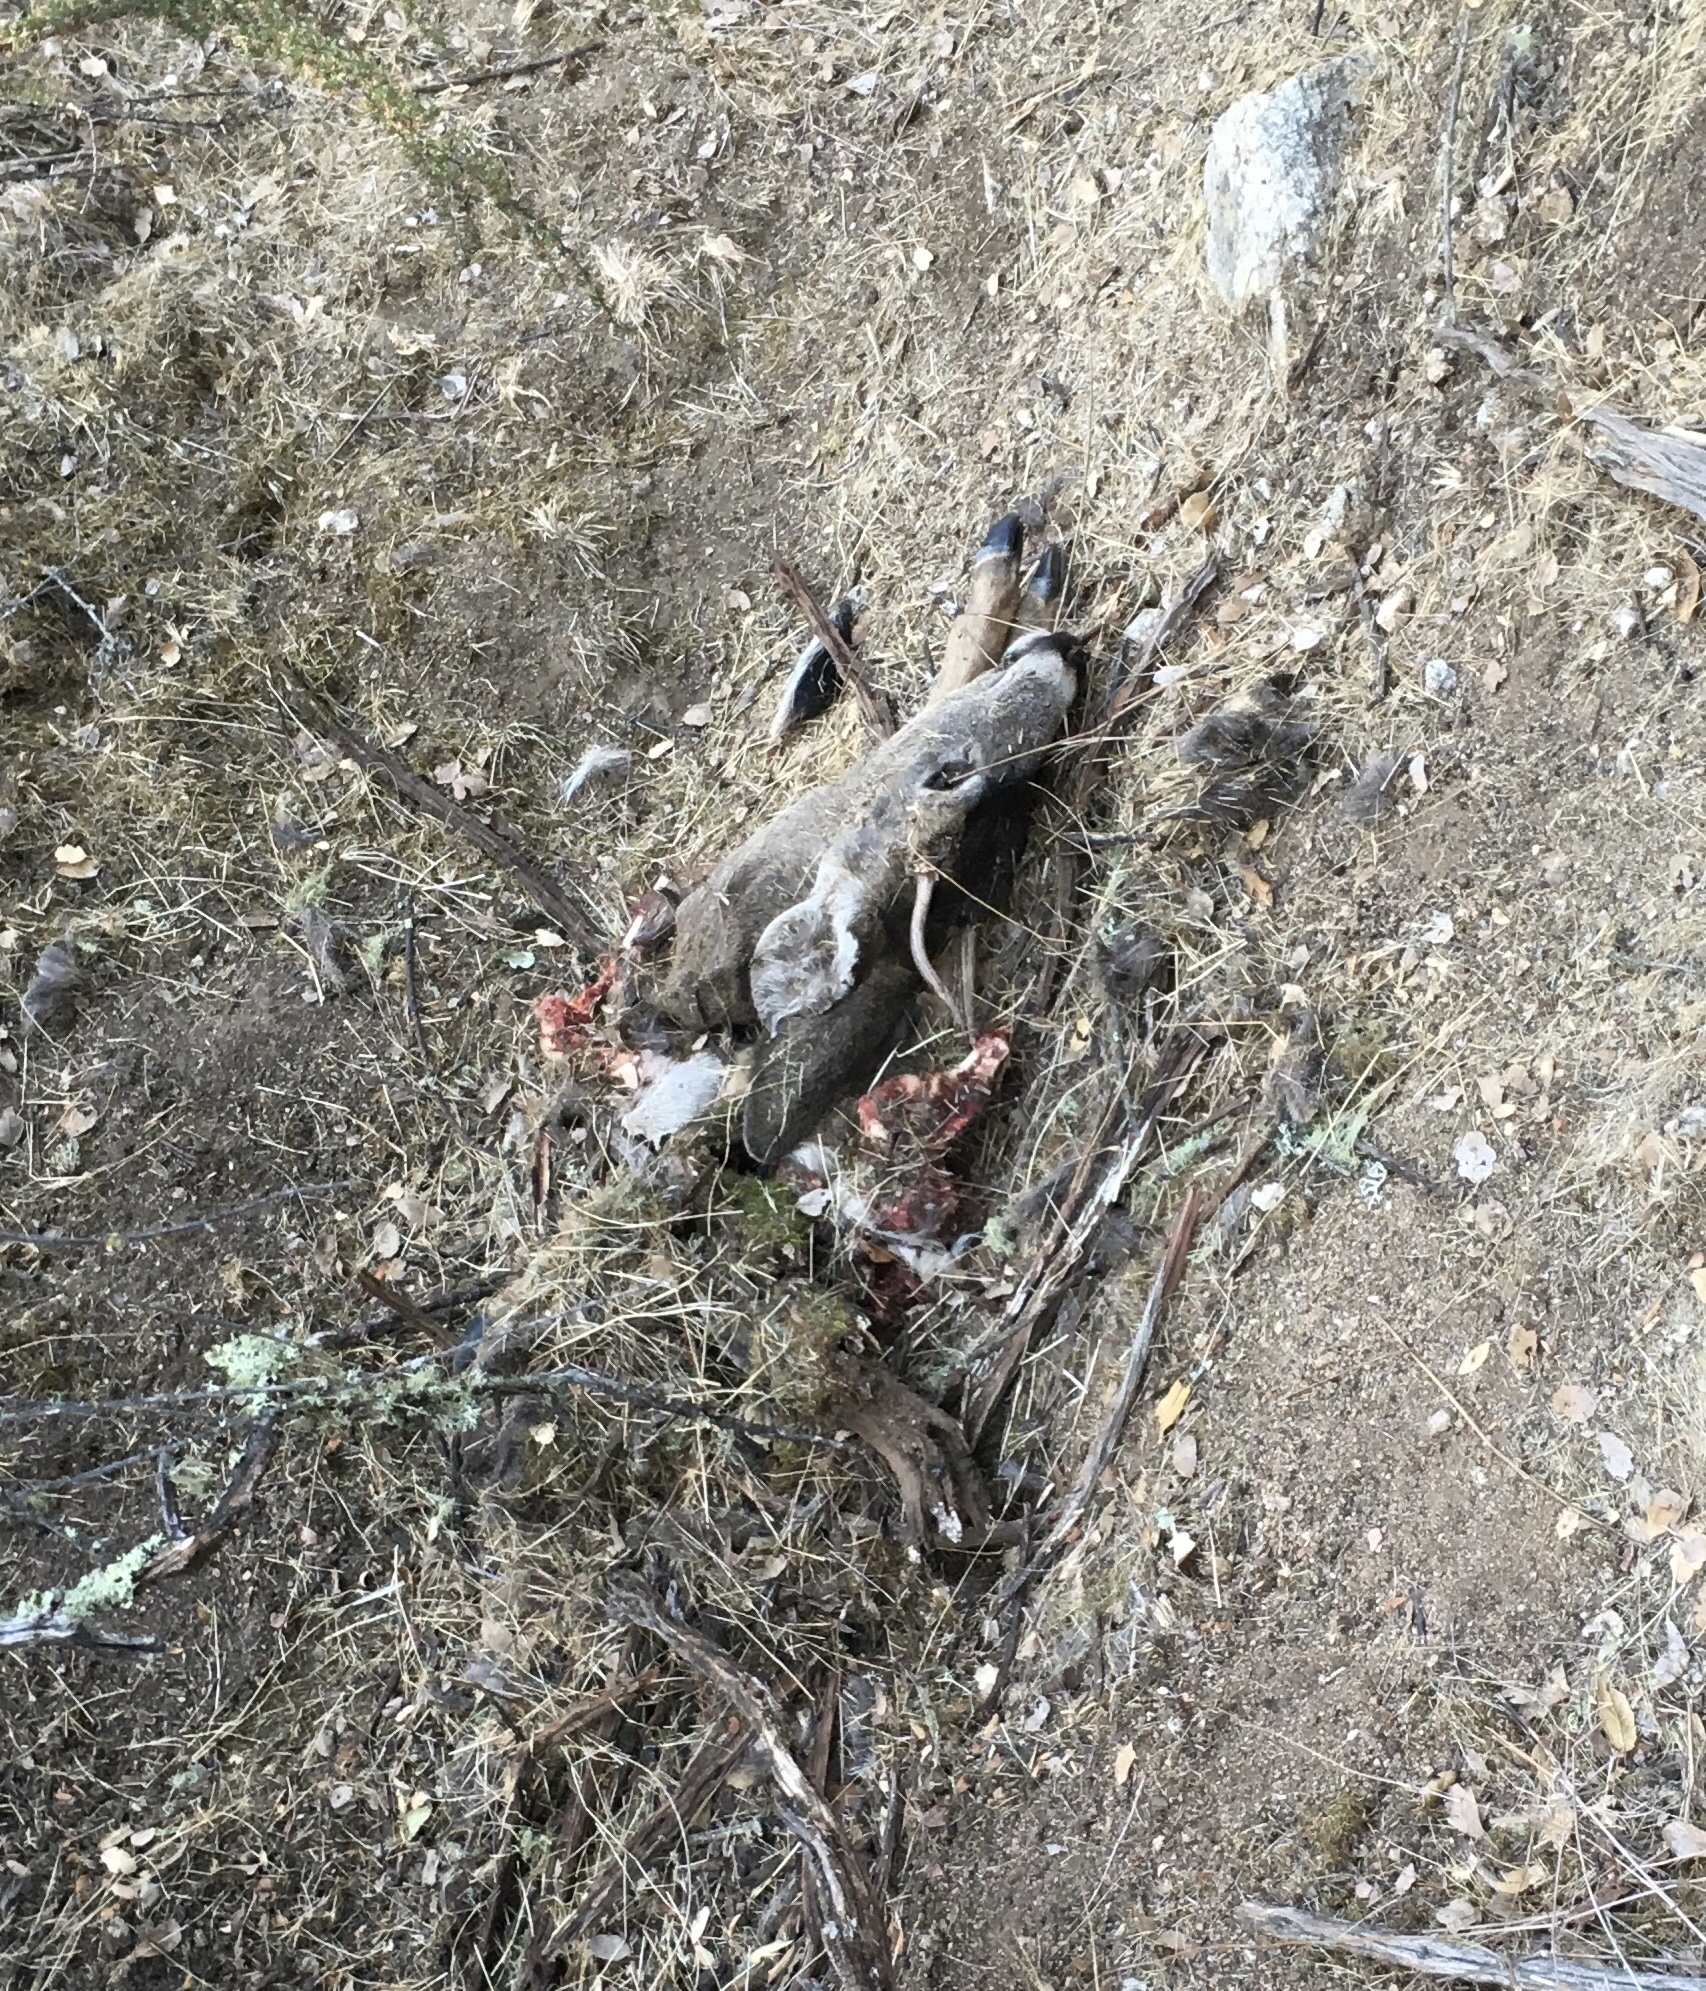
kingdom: Animalia
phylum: Chordata
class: Mammalia
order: Artiodactyla
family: Cervidae
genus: Odocoileus
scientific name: Odocoileus hemionus
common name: Mule deer
